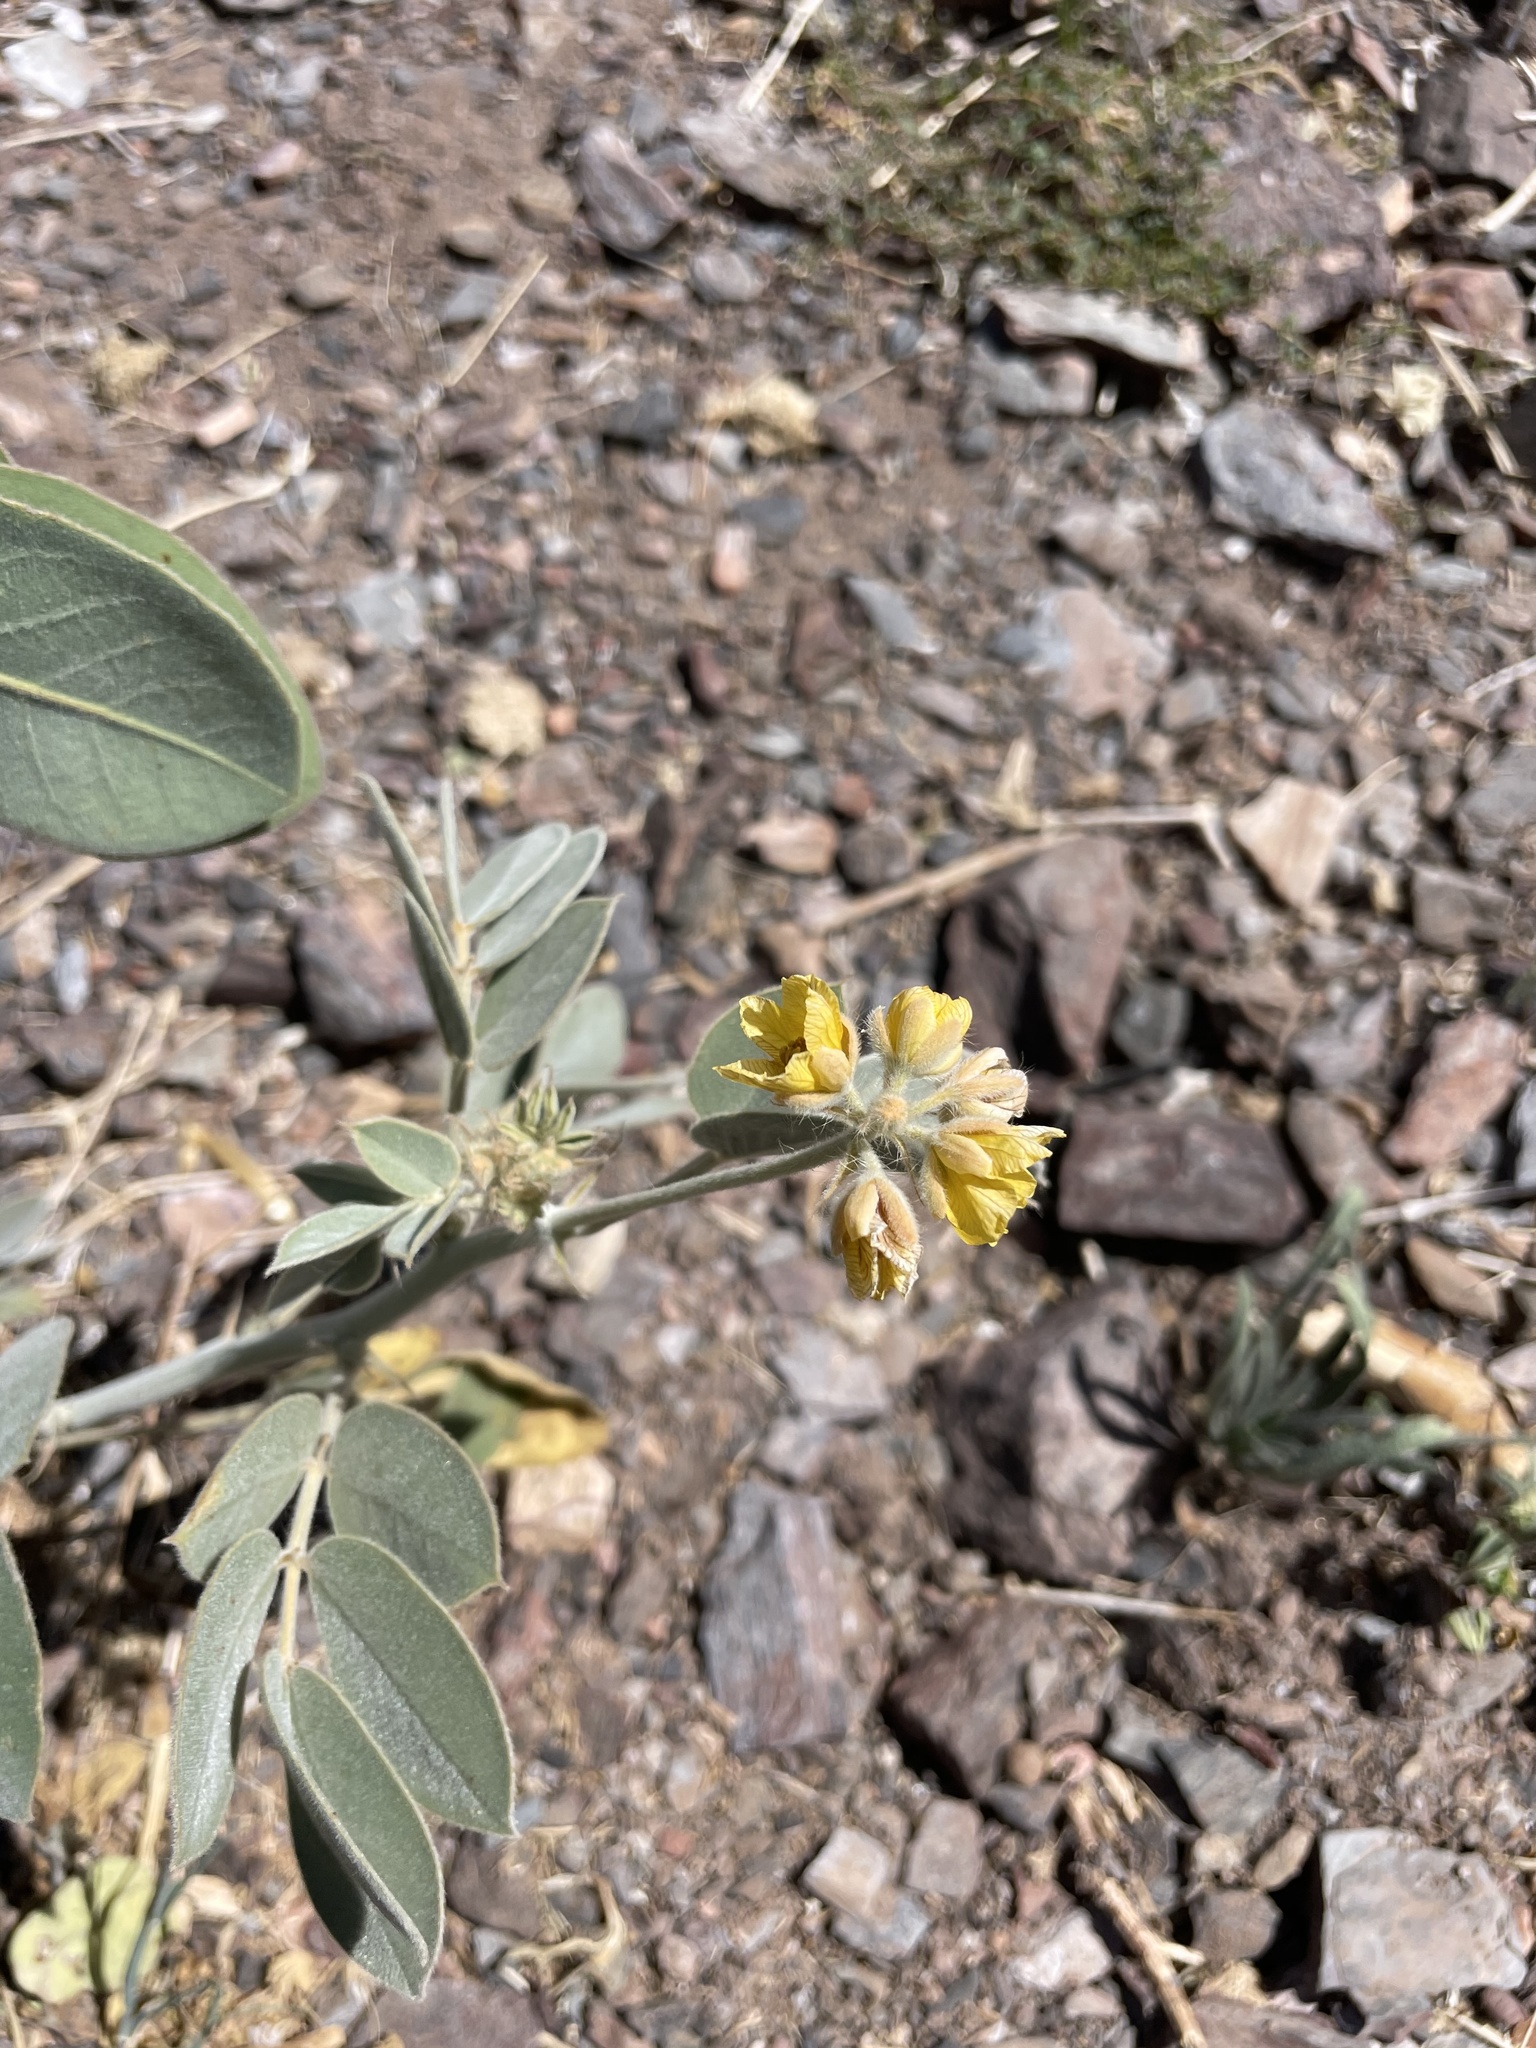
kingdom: Plantae
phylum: Tracheophyta
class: Magnoliopsida
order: Fabales
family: Fabaceae
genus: Senna
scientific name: Senna confinis
